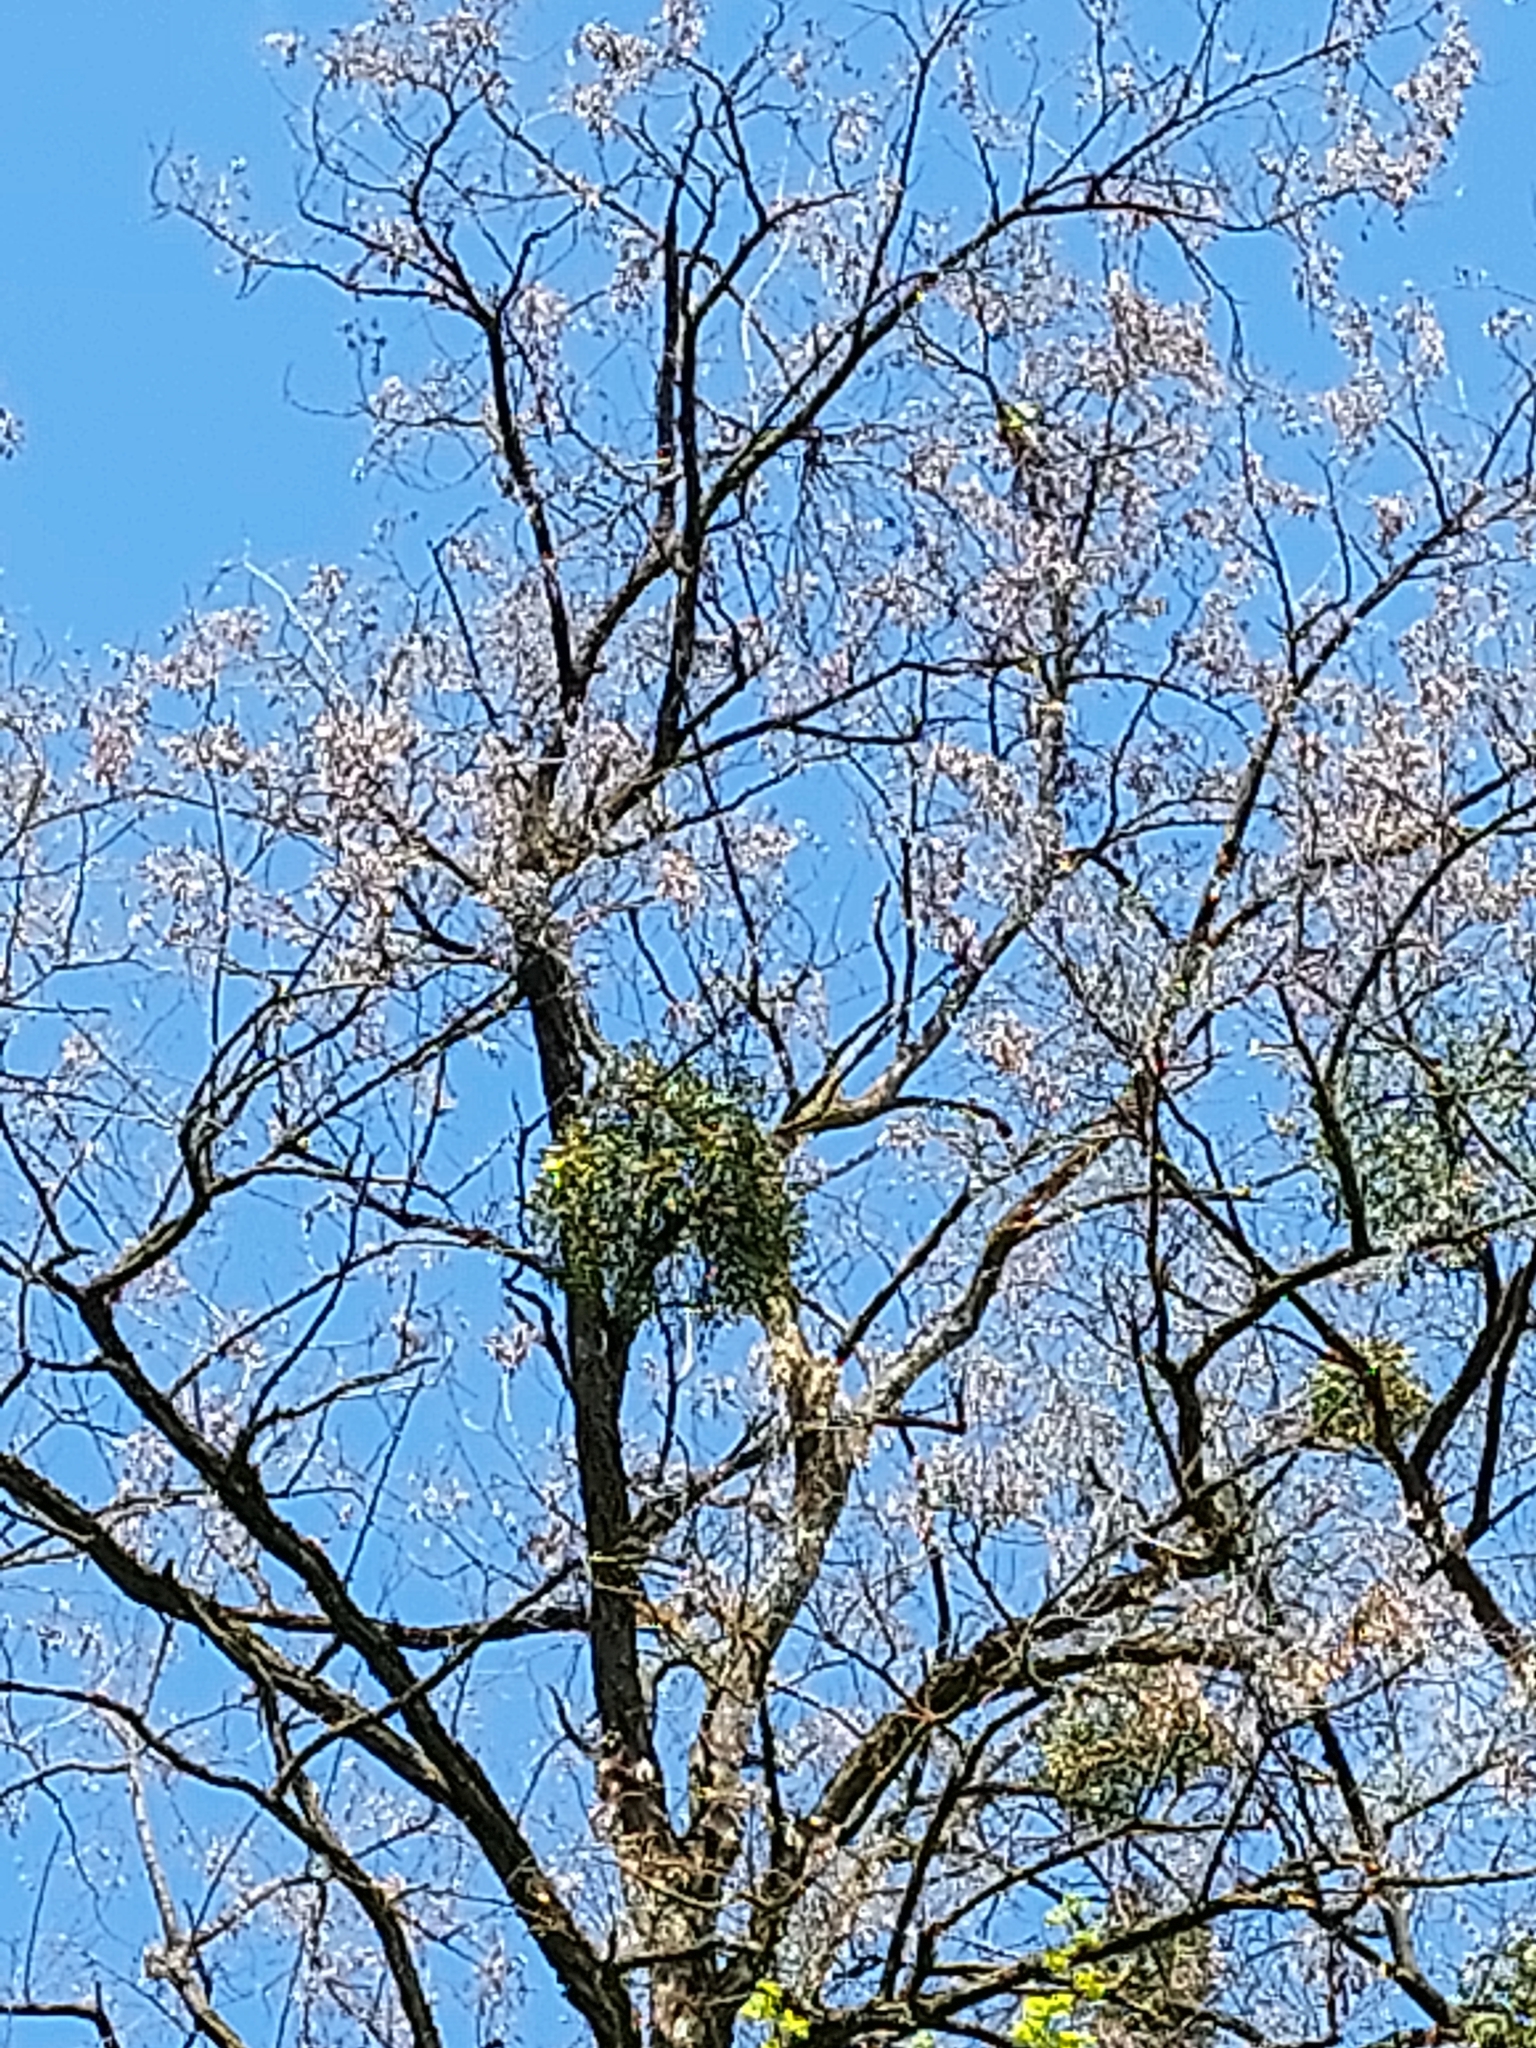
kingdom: Plantae
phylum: Tracheophyta
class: Magnoliopsida
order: Santalales
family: Viscaceae
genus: Viscum
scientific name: Viscum album
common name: Mistletoe
